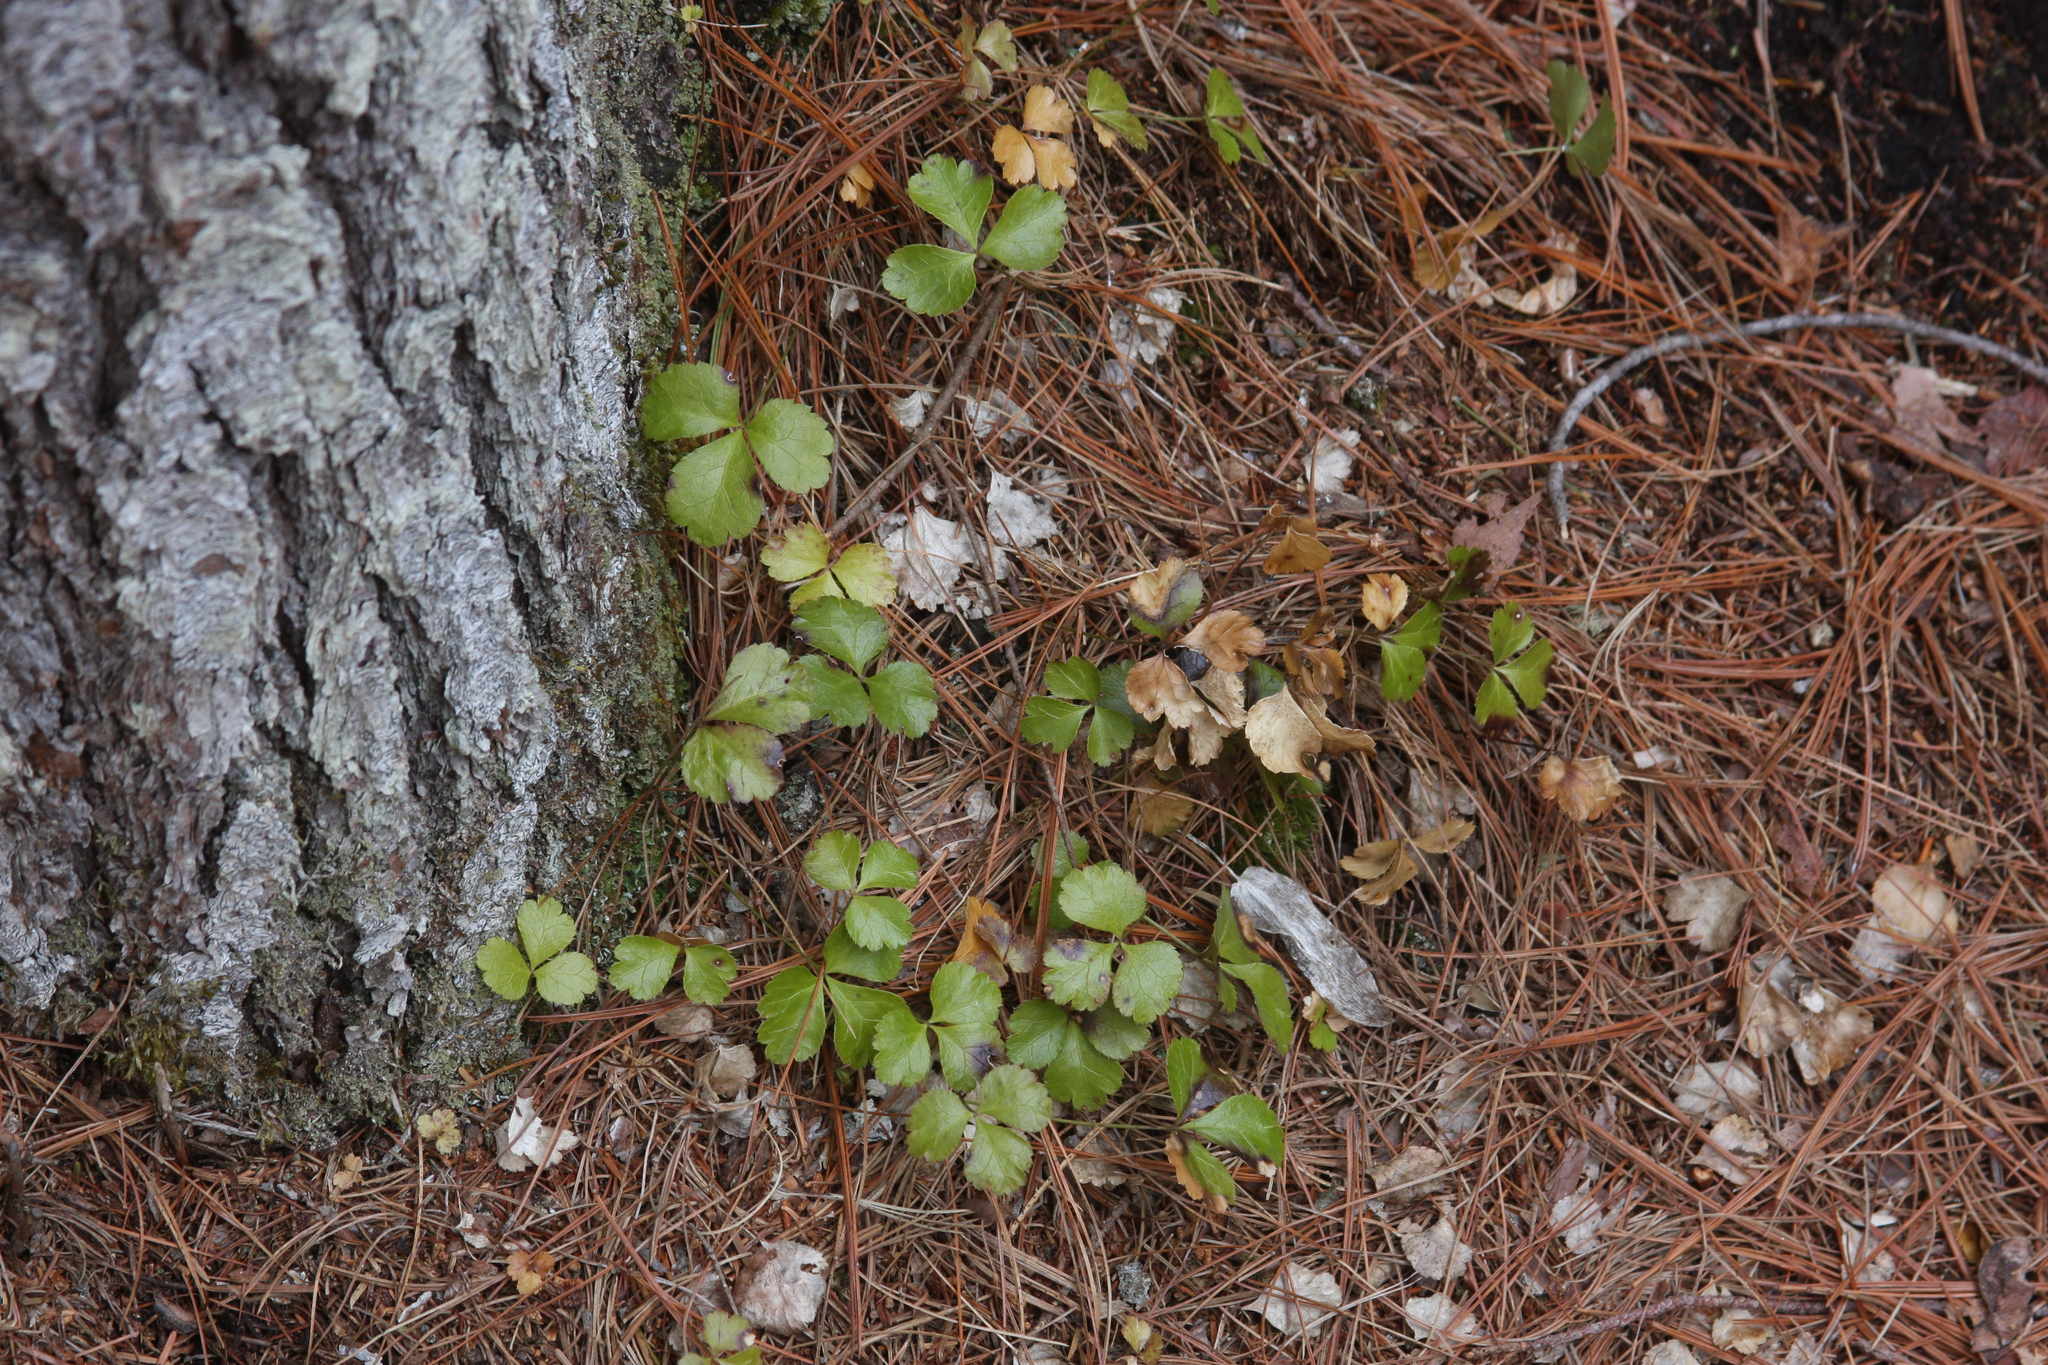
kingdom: Plantae
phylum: Tracheophyta
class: Magnoliopsida
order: Ranunculales
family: Ranunculaceae
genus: Coptis
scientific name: Coptis trifolia
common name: Canker-root
